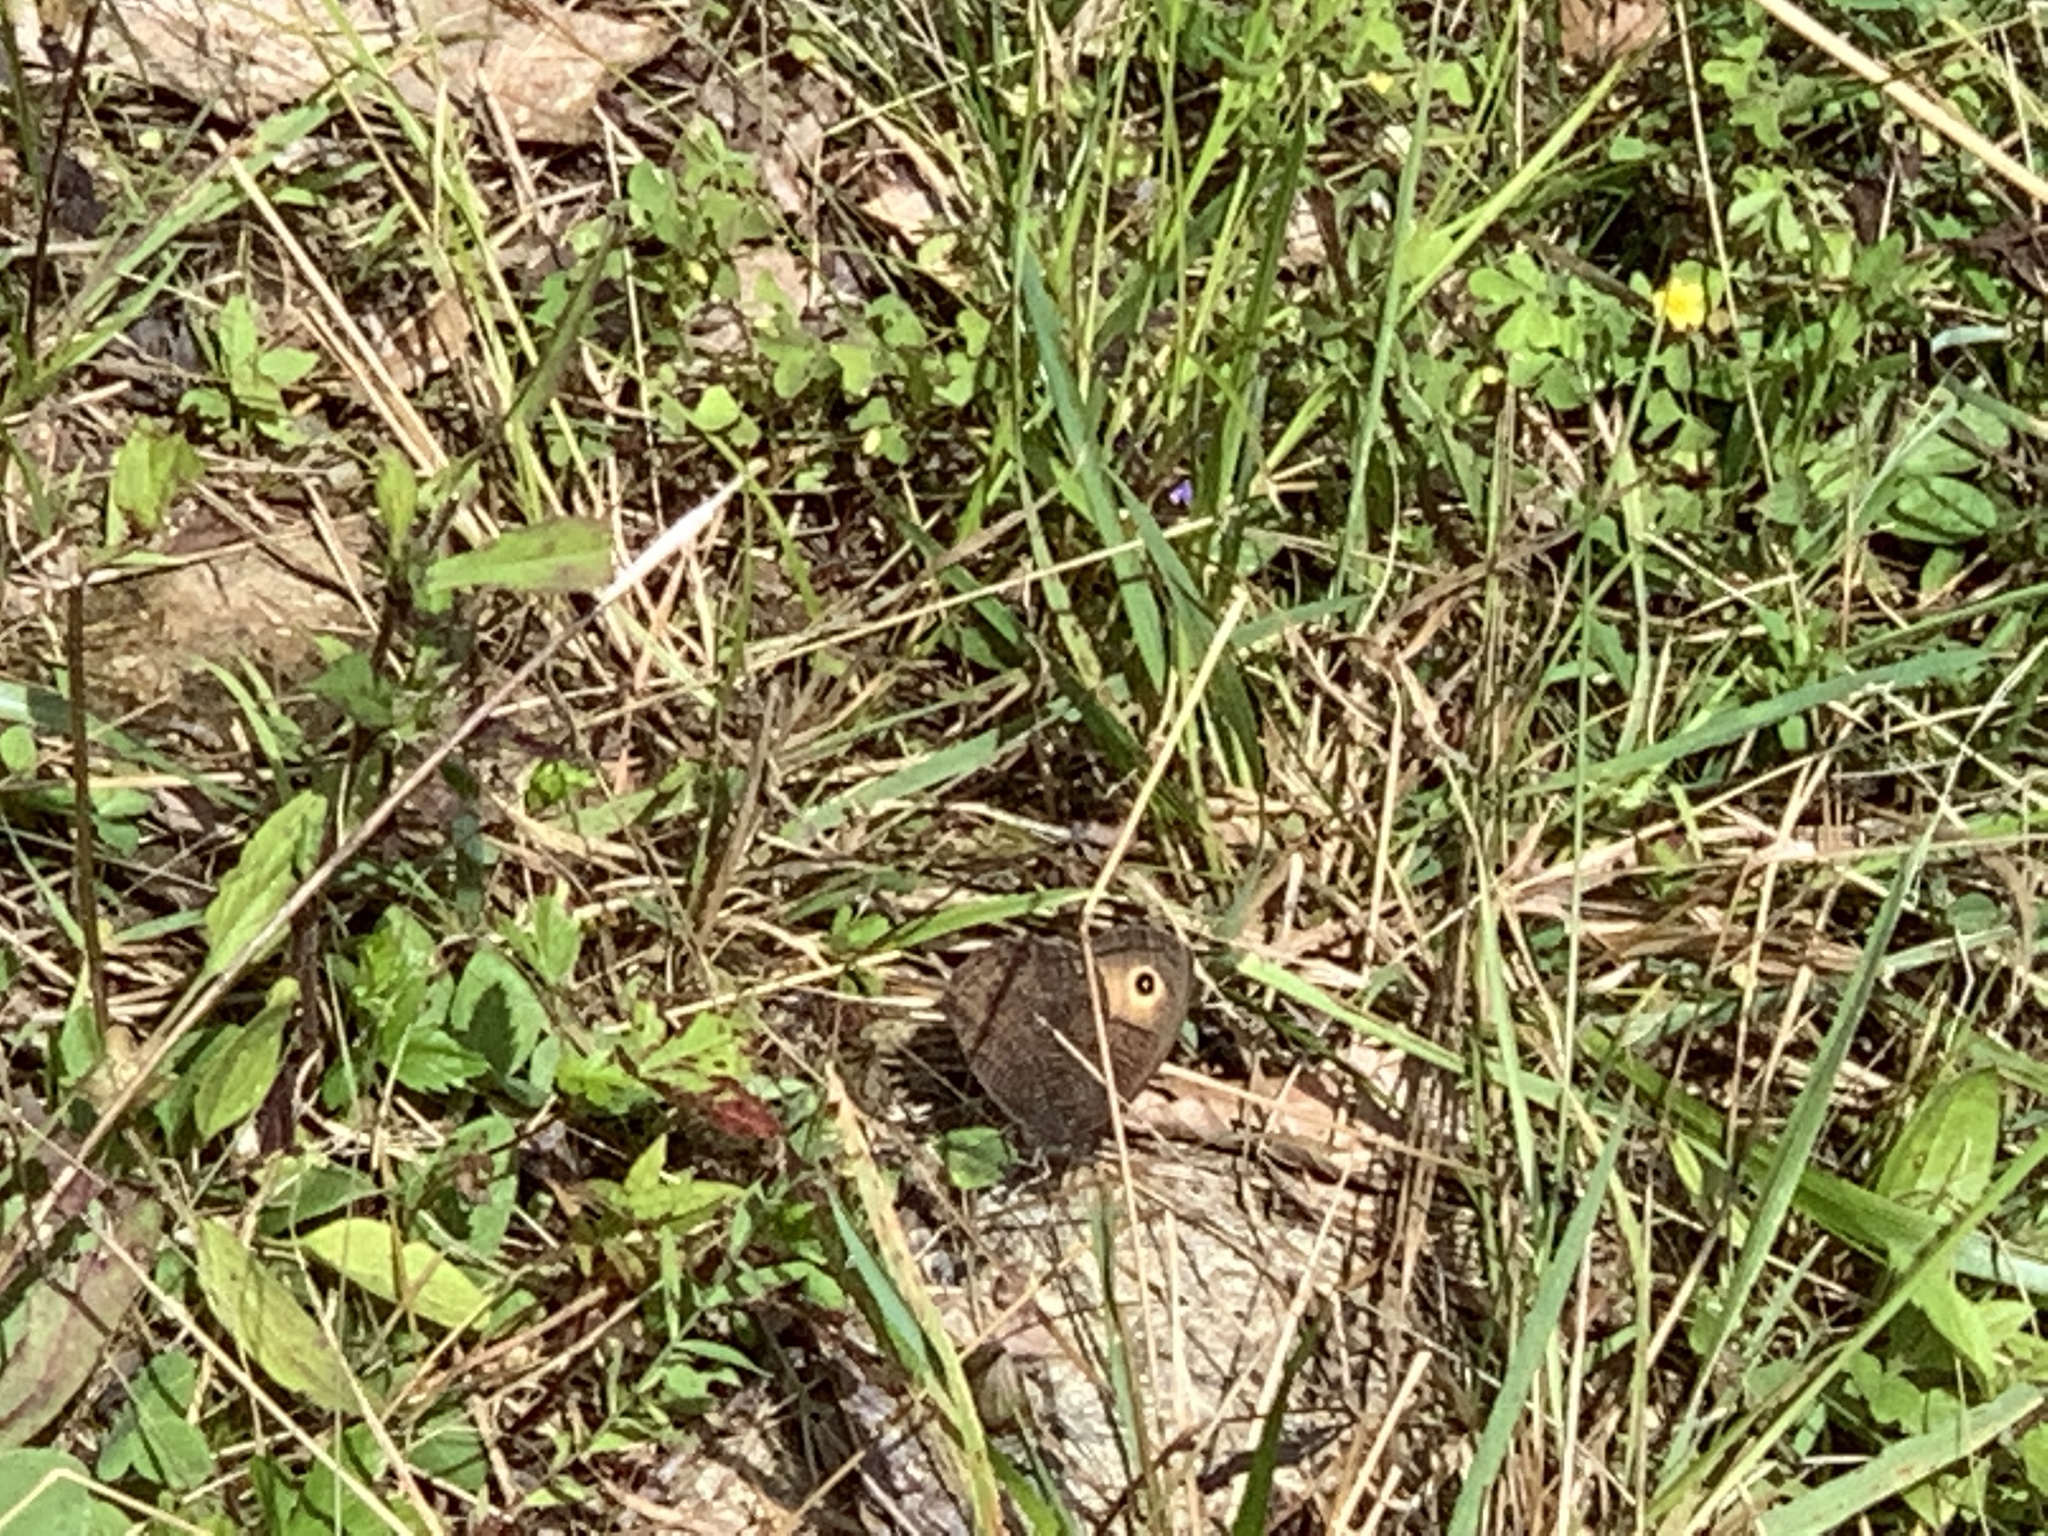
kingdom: Animalia
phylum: Arthropoda
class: Insecta
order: Lepidoptera
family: Nymphalidae
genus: Cercyonis
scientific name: Cercyonis pegala
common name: Common wood-nymph
